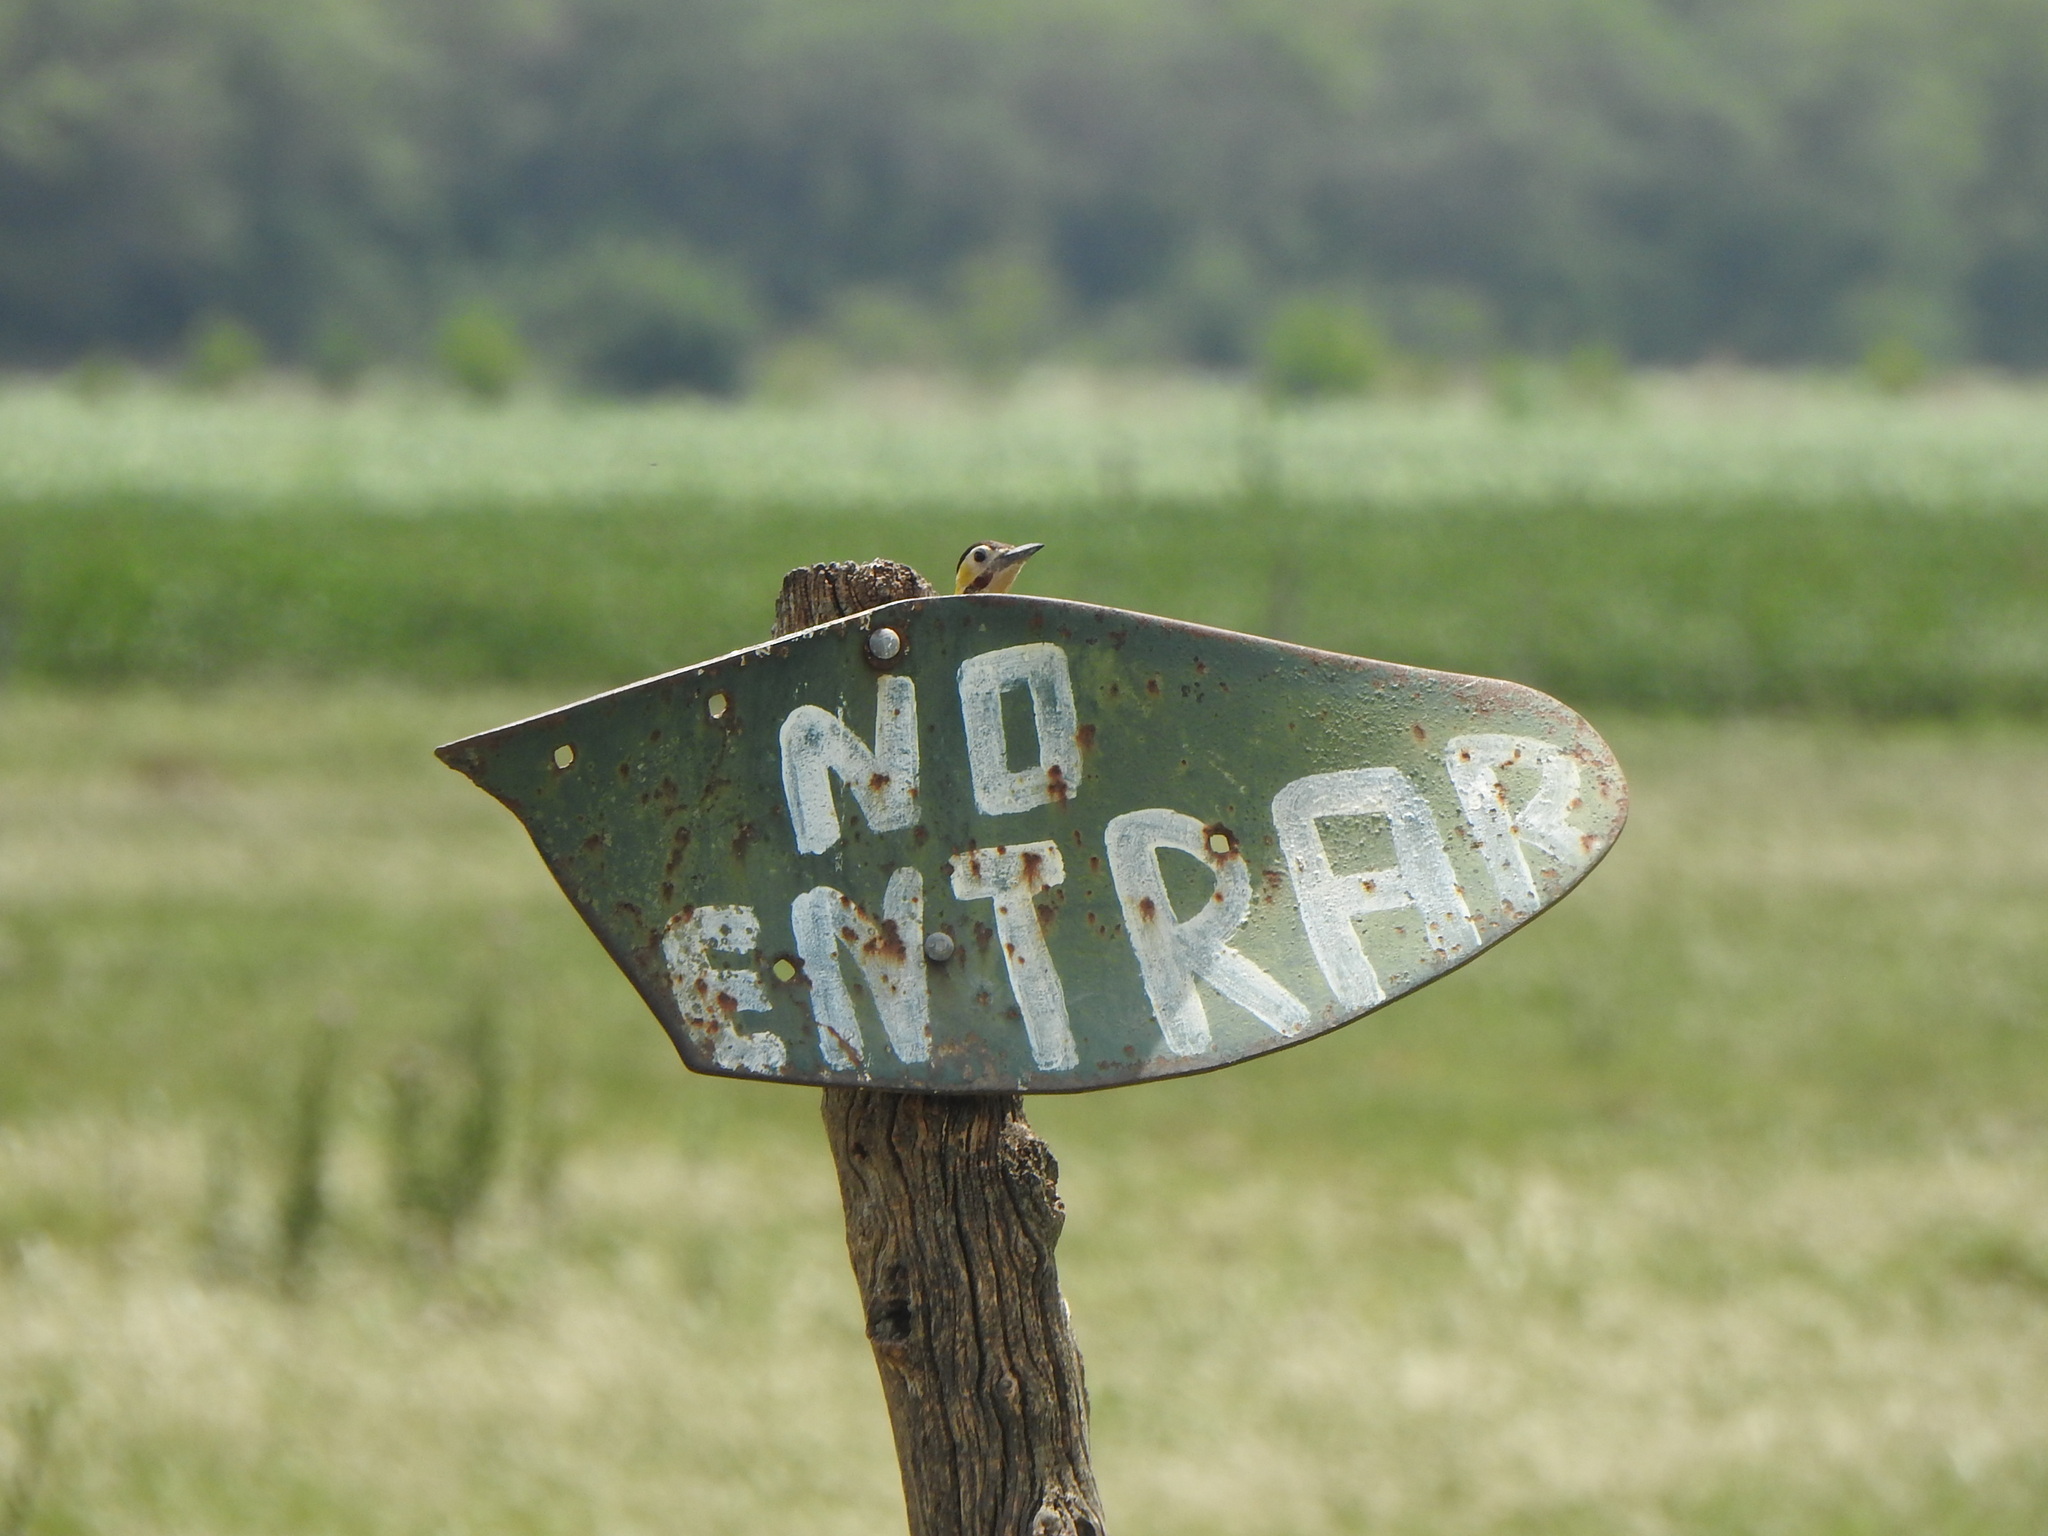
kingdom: Animalia
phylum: Chordata
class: Aves
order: Piciformes
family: Picidae
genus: Colaptes
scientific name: Colaptes campestris
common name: Campo flicker
